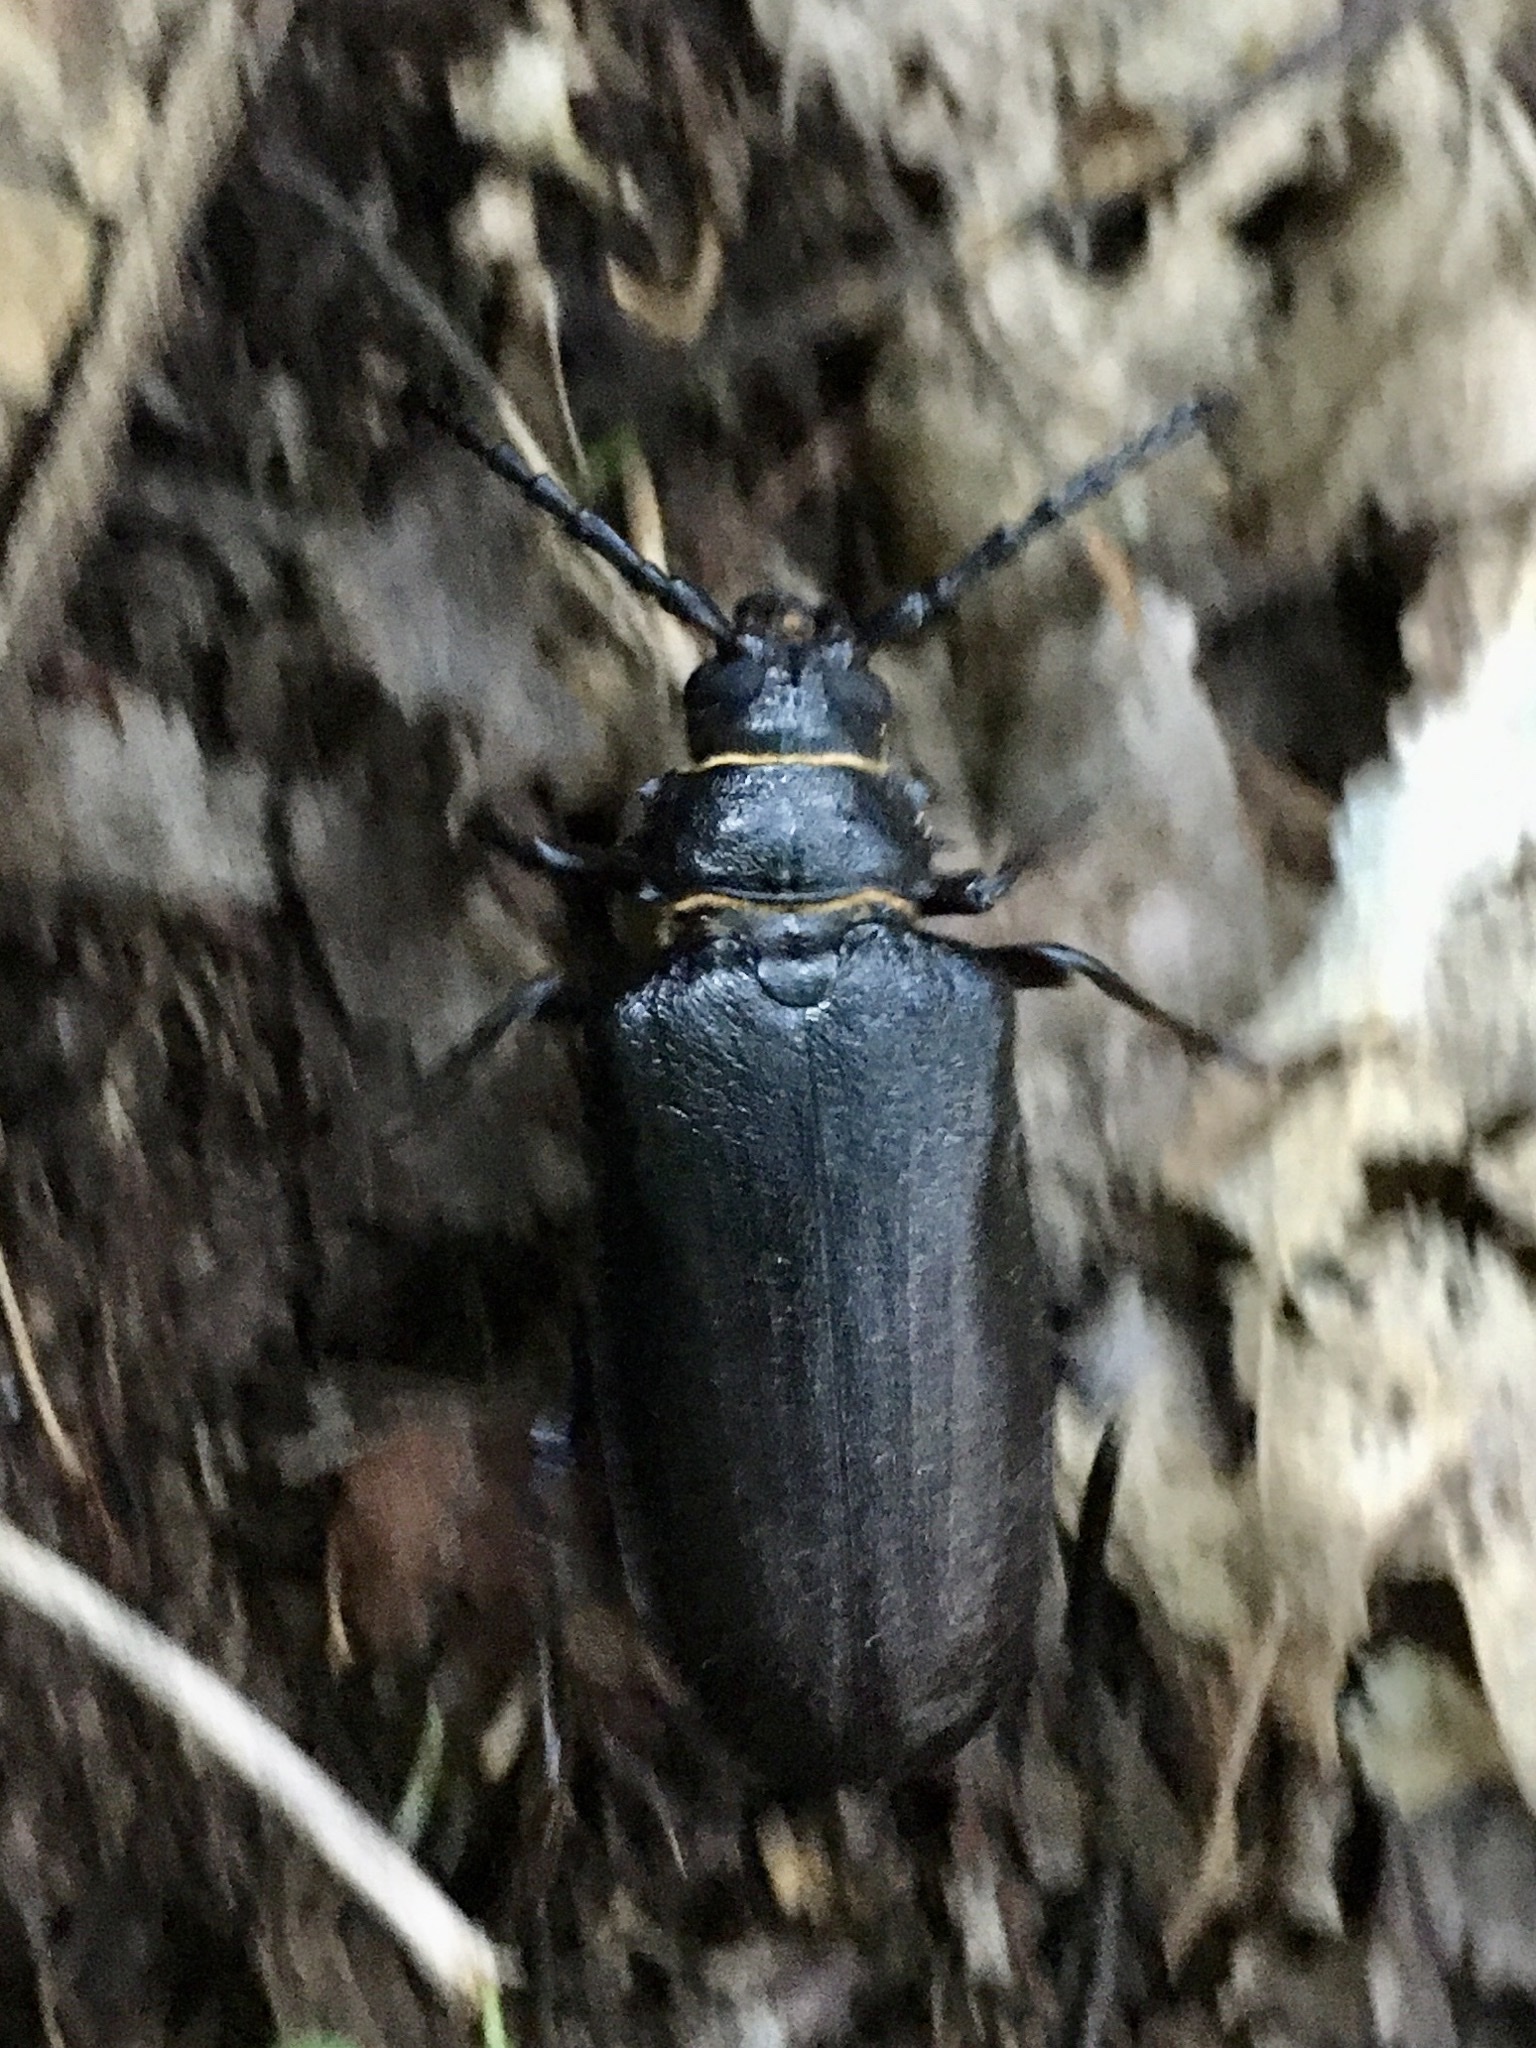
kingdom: Animalia
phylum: Arthropoda
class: Insecta
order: Coleoptera
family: Cerambycidae
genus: Prionus
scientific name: Prionus coriarius
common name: Tanner beetle
